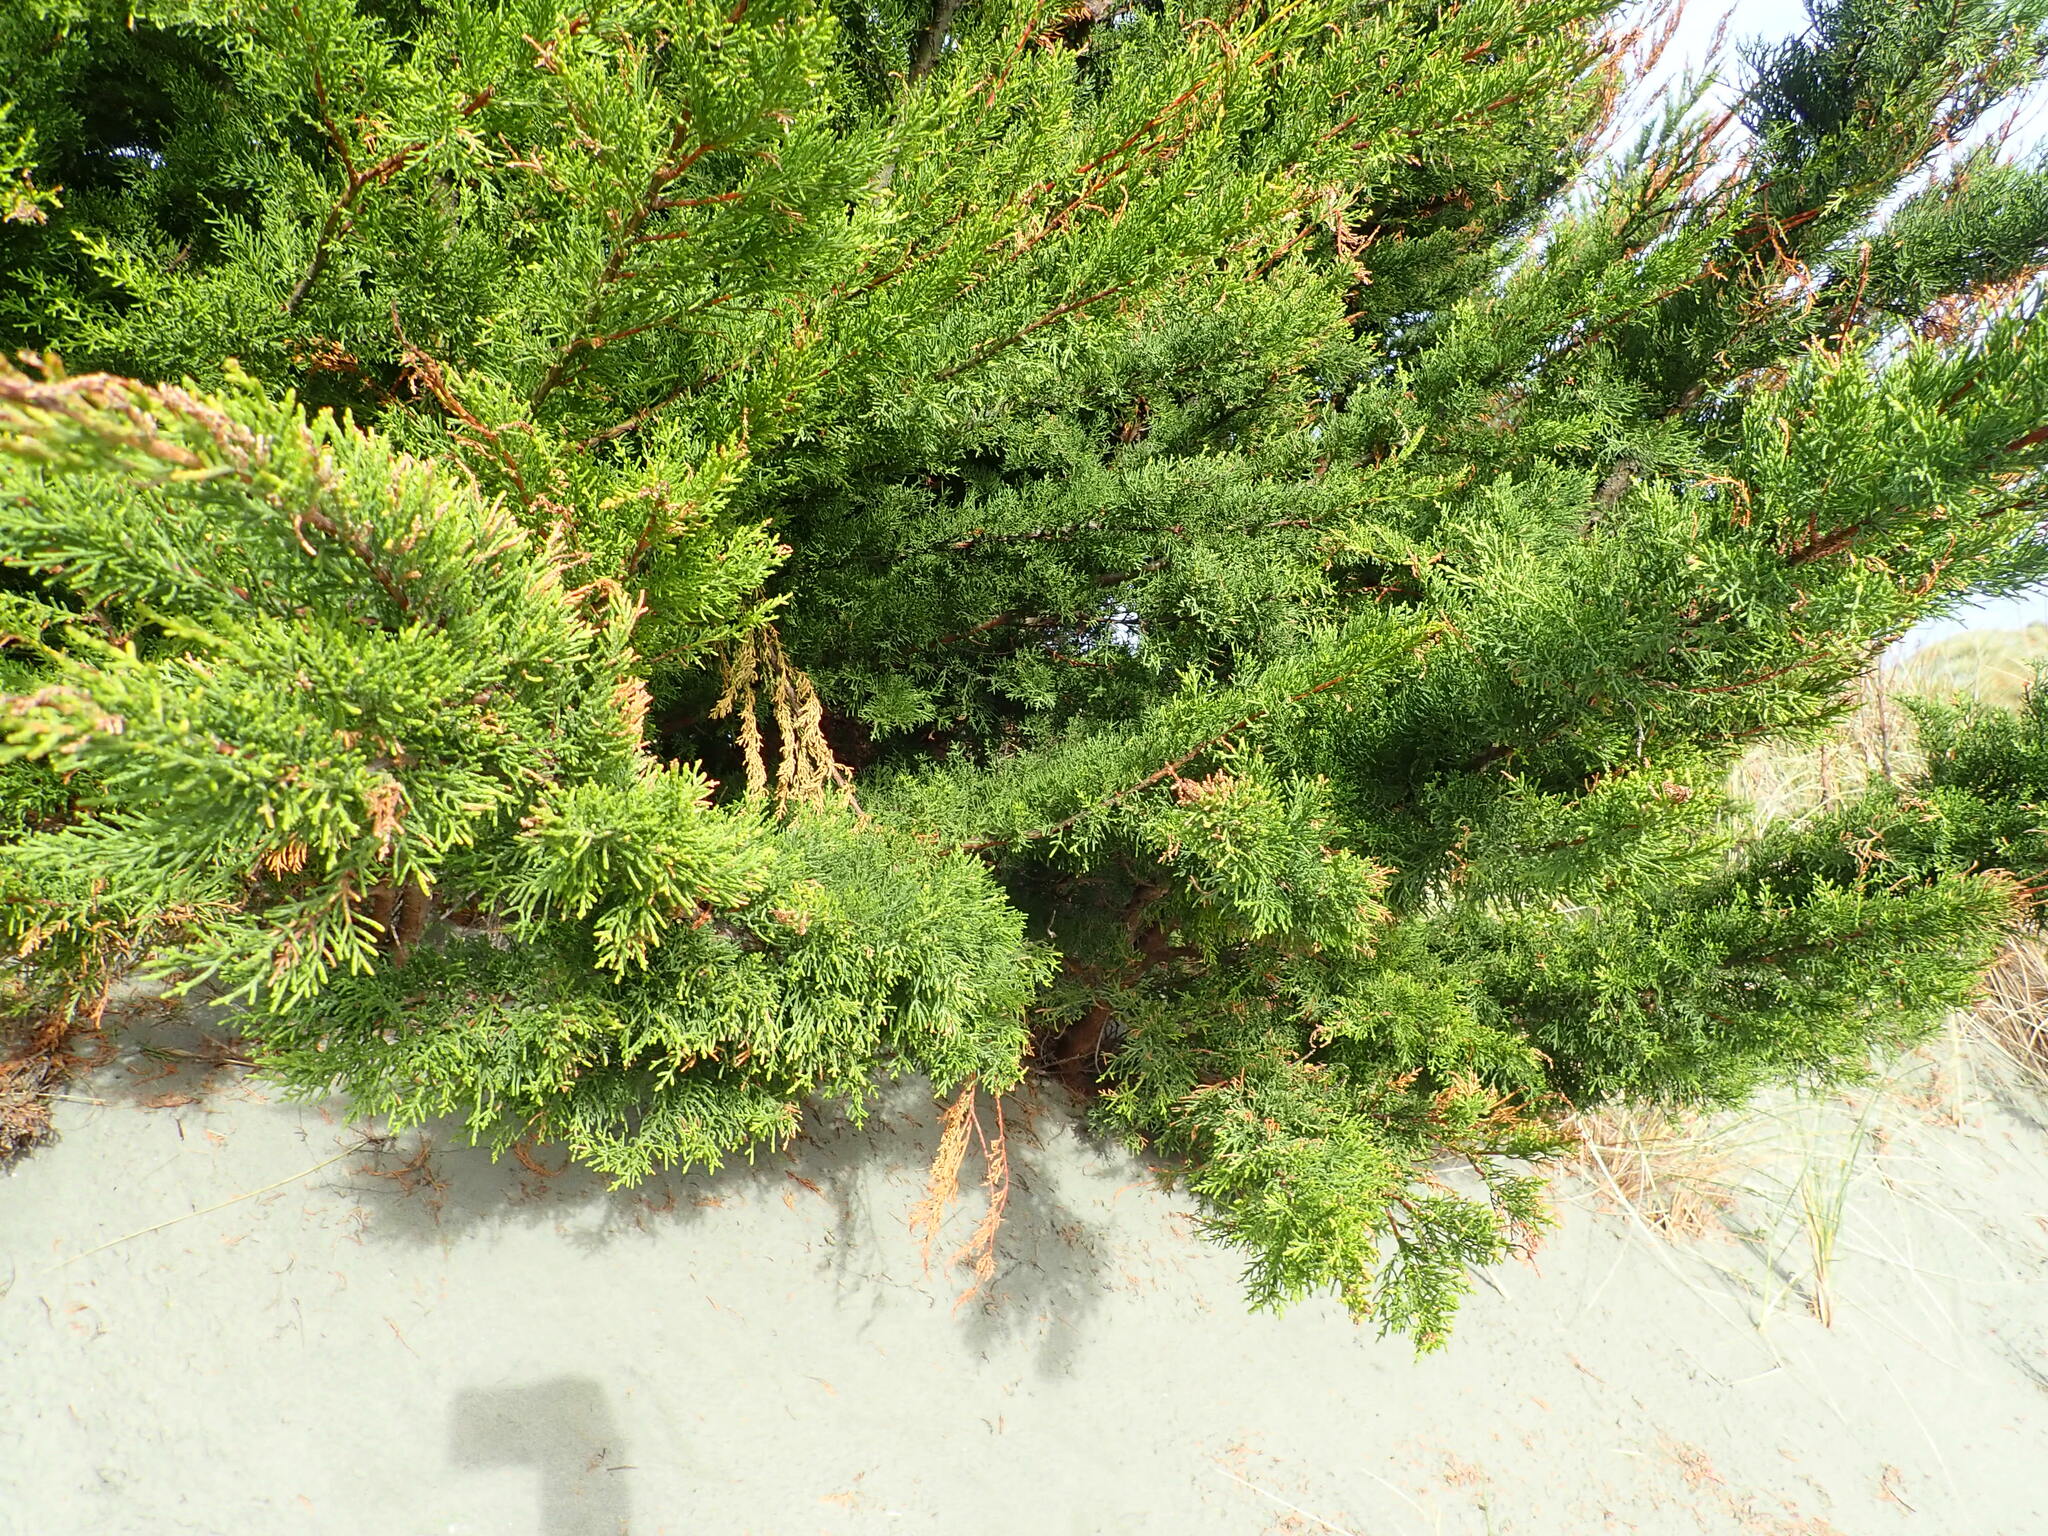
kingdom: Plantae
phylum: Tracheophyta
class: Pinopsida
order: Pinales
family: Cupressaceae
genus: Cupressus
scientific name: Cupressus macrocarpa
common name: Monterey cypress
